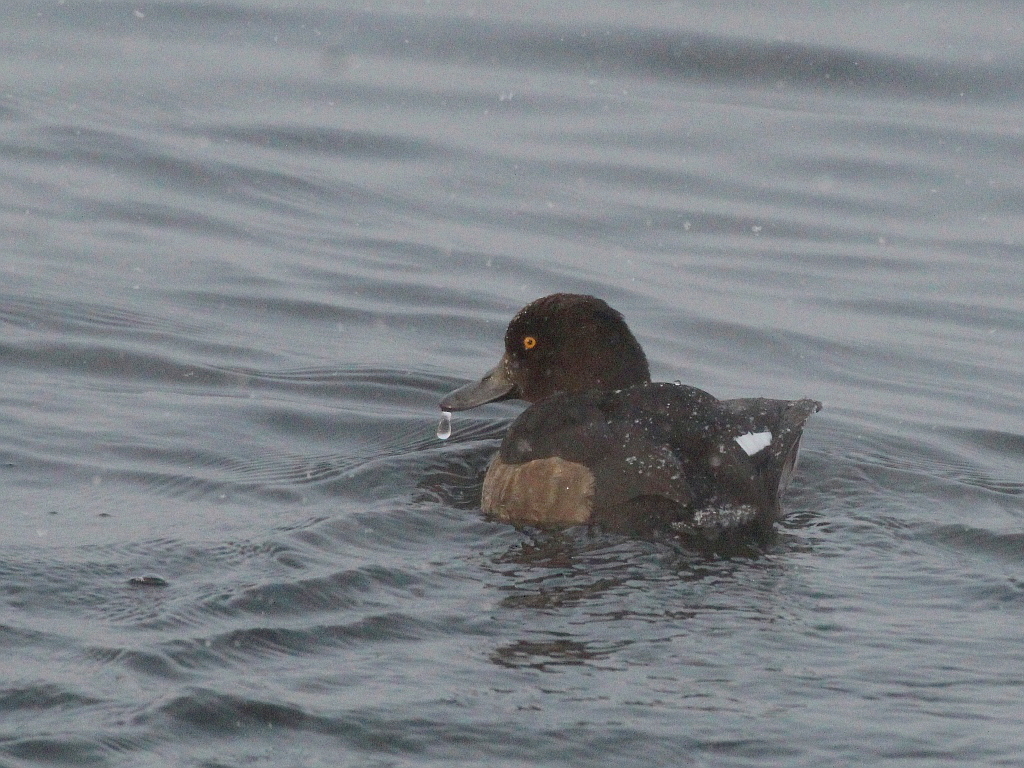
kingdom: Animalia
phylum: Chordata
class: Aves
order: Anseriformes
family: Anatidae
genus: Aythya
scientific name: Aythya fuligula
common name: Tufted duck
